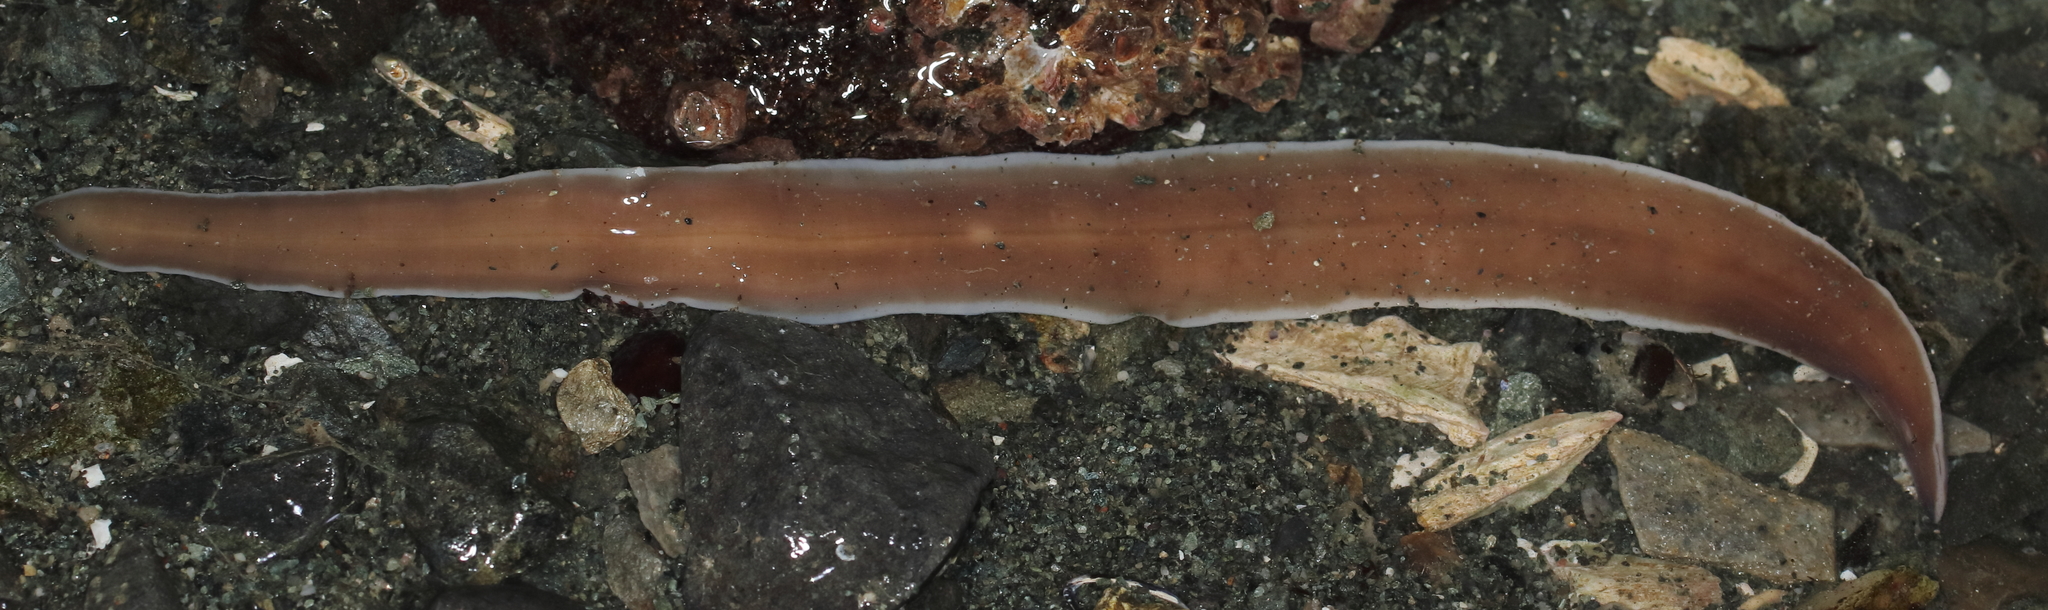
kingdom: Animalia
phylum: Nemertea
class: Pilidiophora
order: Heteronemertea
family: Lineidae
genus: Cerebratulus
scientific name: Cerebratulus marginatus
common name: Black ribbon worm
